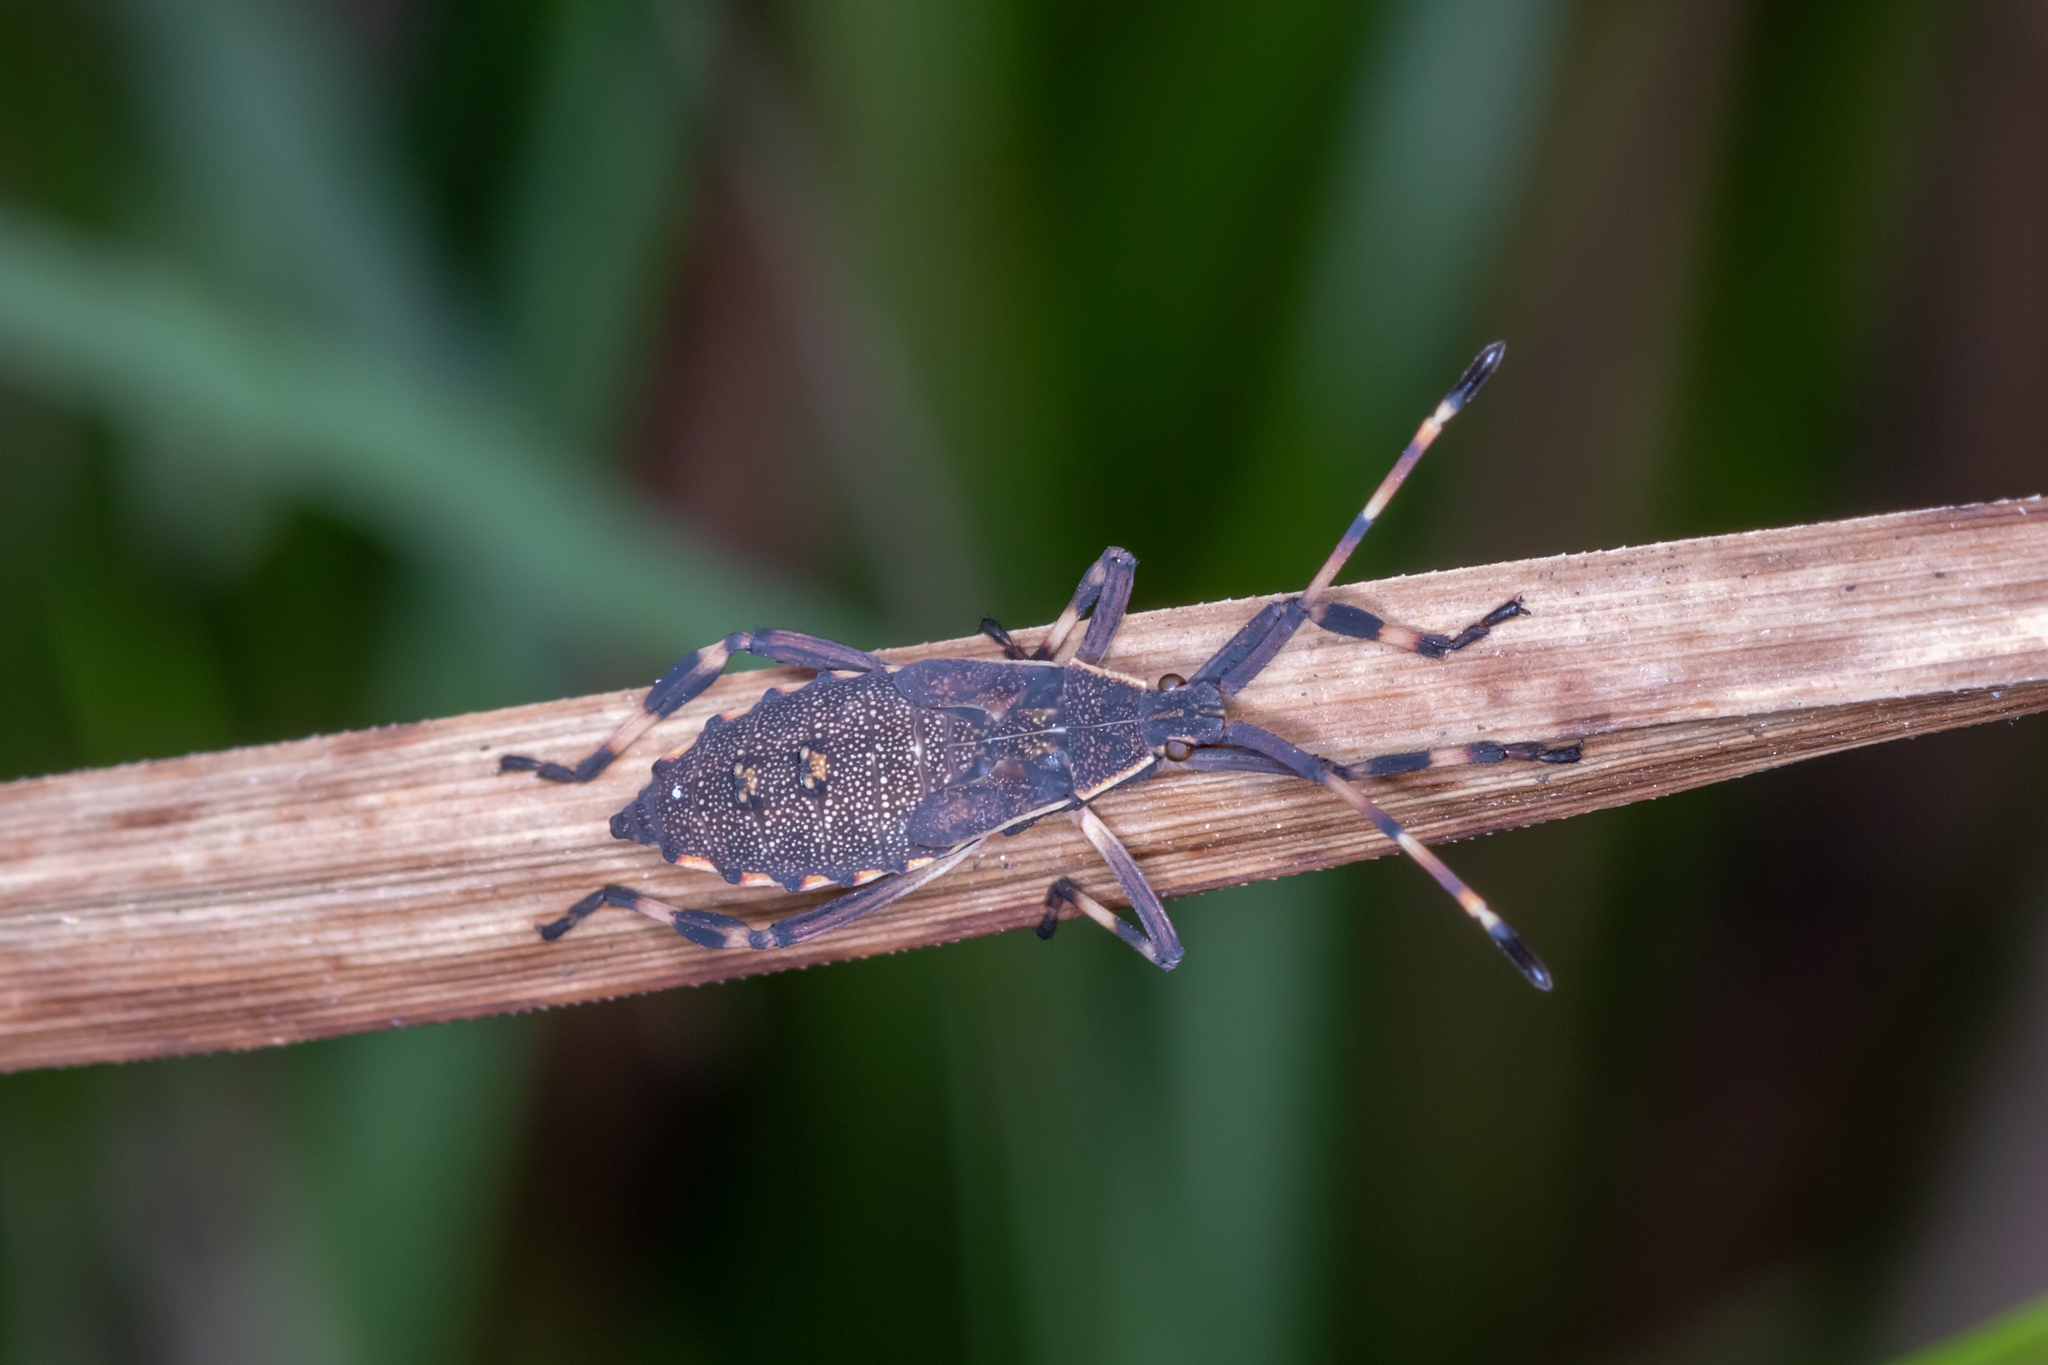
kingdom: Animalia
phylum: Arthropoda
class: Insecta
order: Hemiptera
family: Coreidae
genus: Gelonus
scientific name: Gelonus tasmanicus
